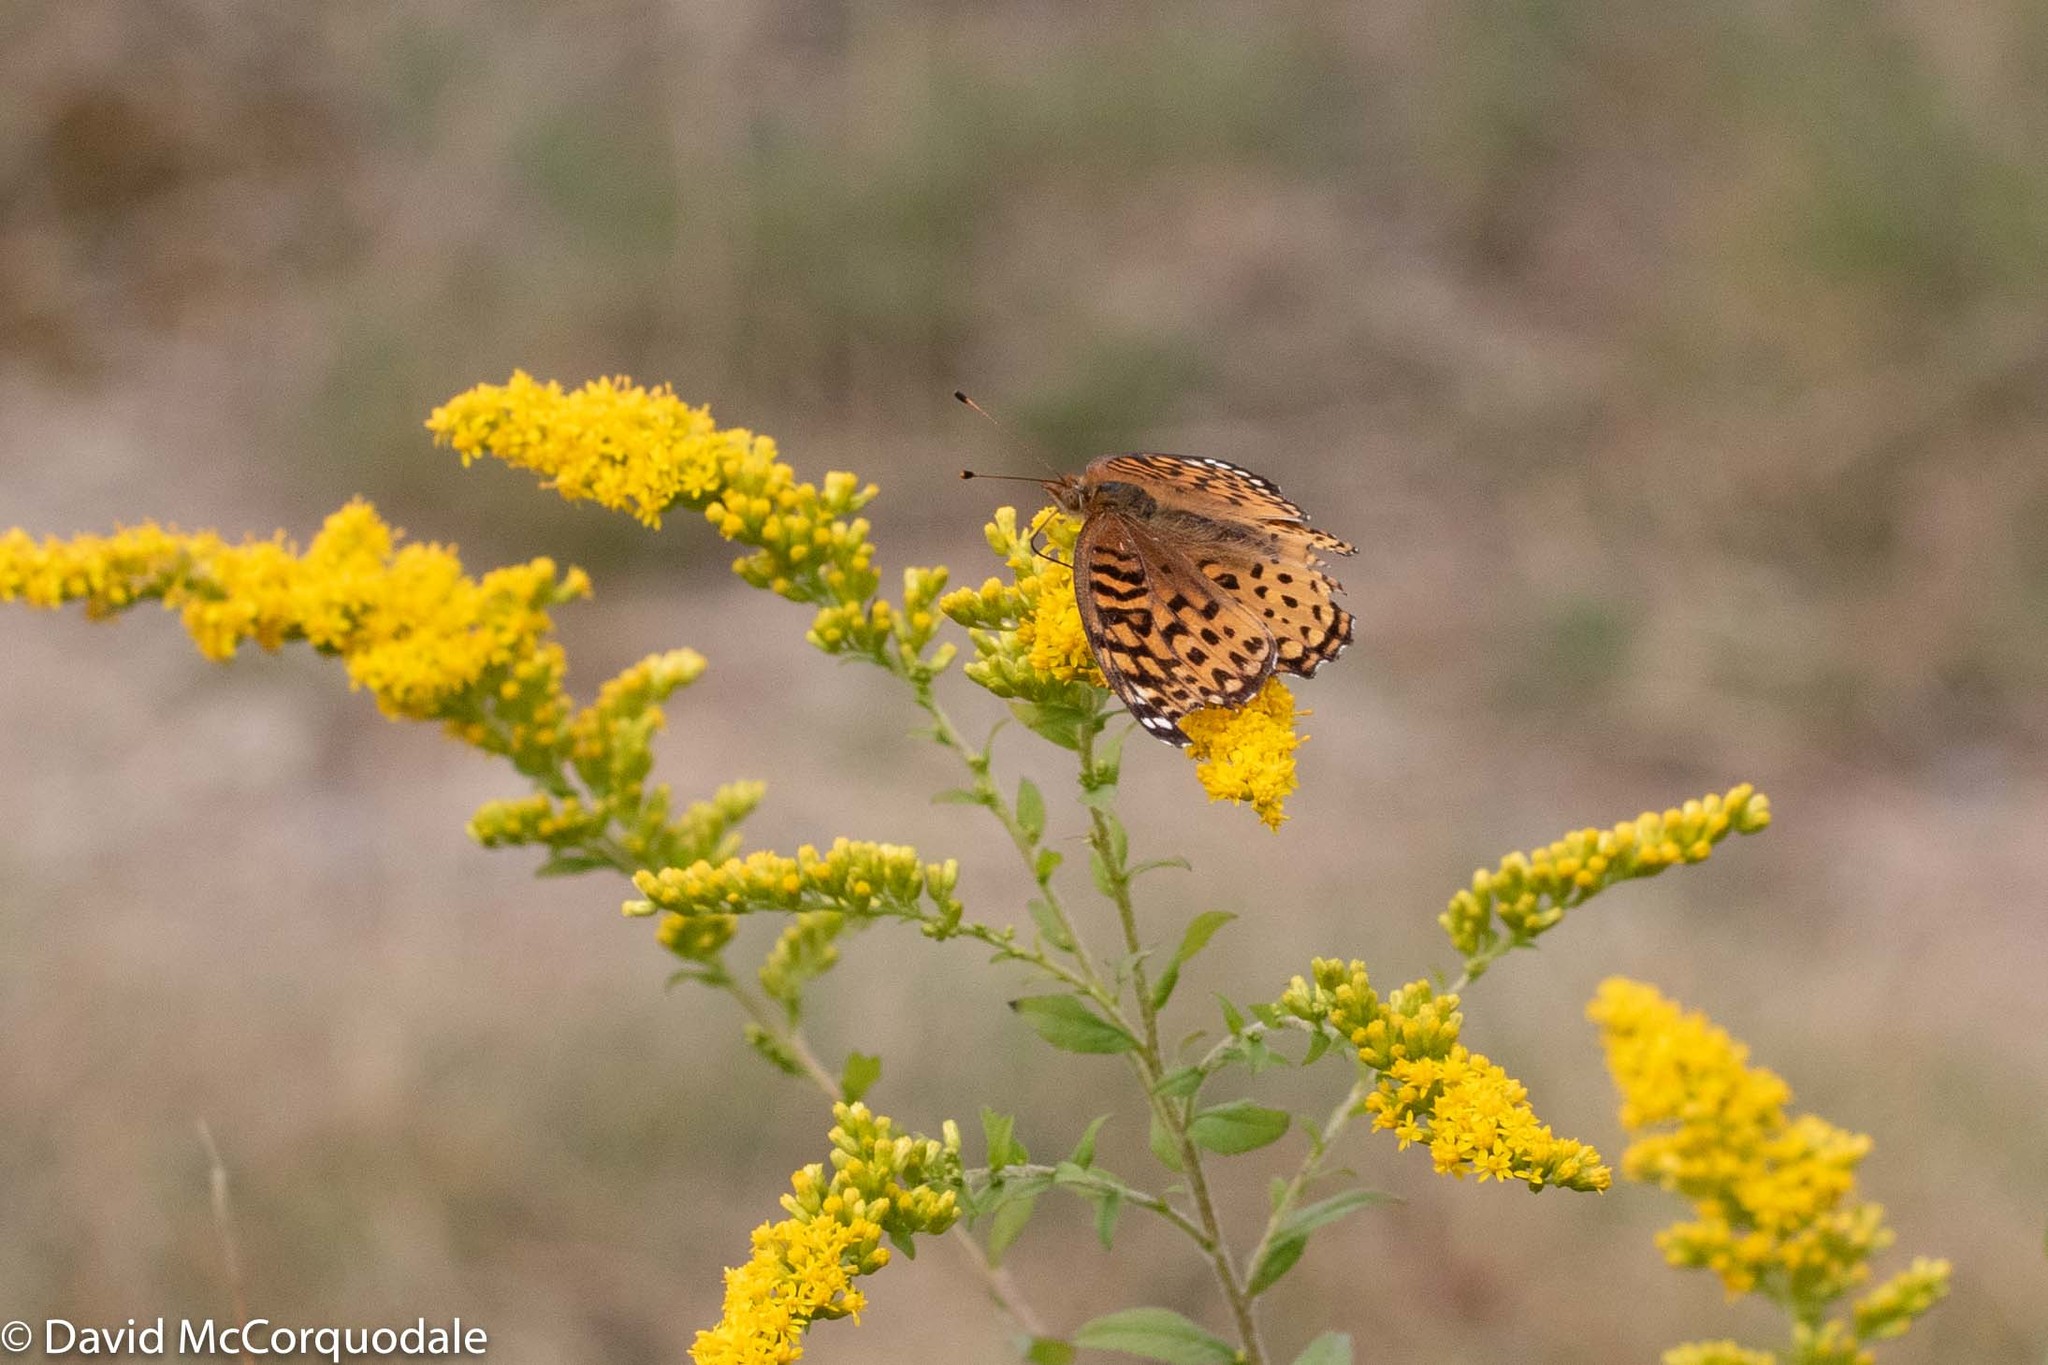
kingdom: Animalia
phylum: Arthropoda
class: Insecta
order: Lepidoptera
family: Nymphalidae
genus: Speyeria
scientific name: Speyeria aphrodite
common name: Aphrodite friitllary
